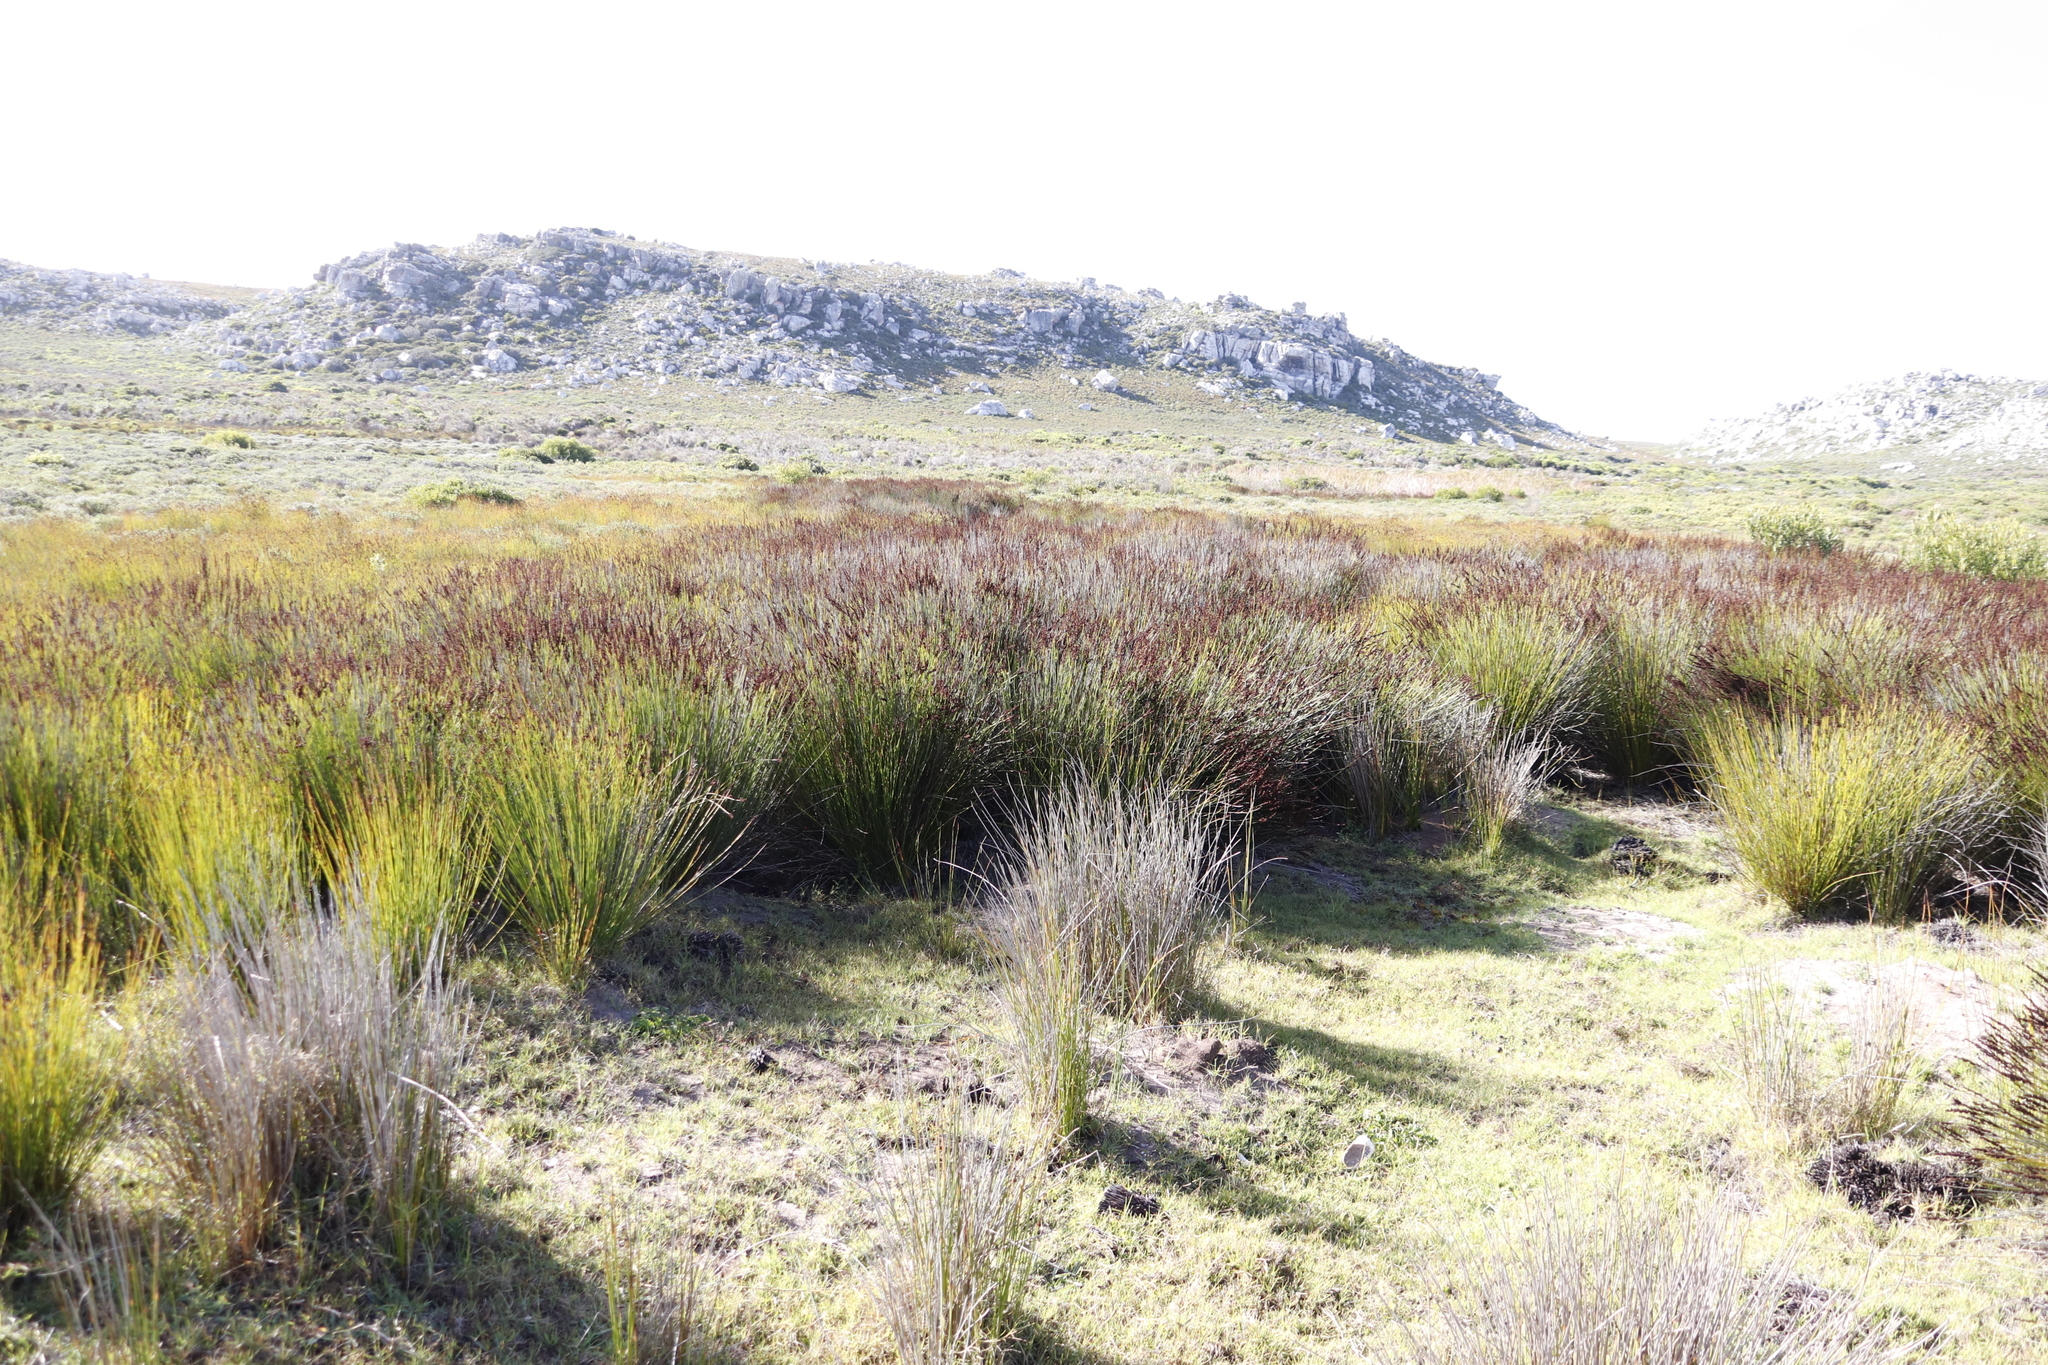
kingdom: Plantae
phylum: Tracheophyta
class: Liliopsida
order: Poales
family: Restionaceae
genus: Elegia
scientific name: Elegia tectorum
